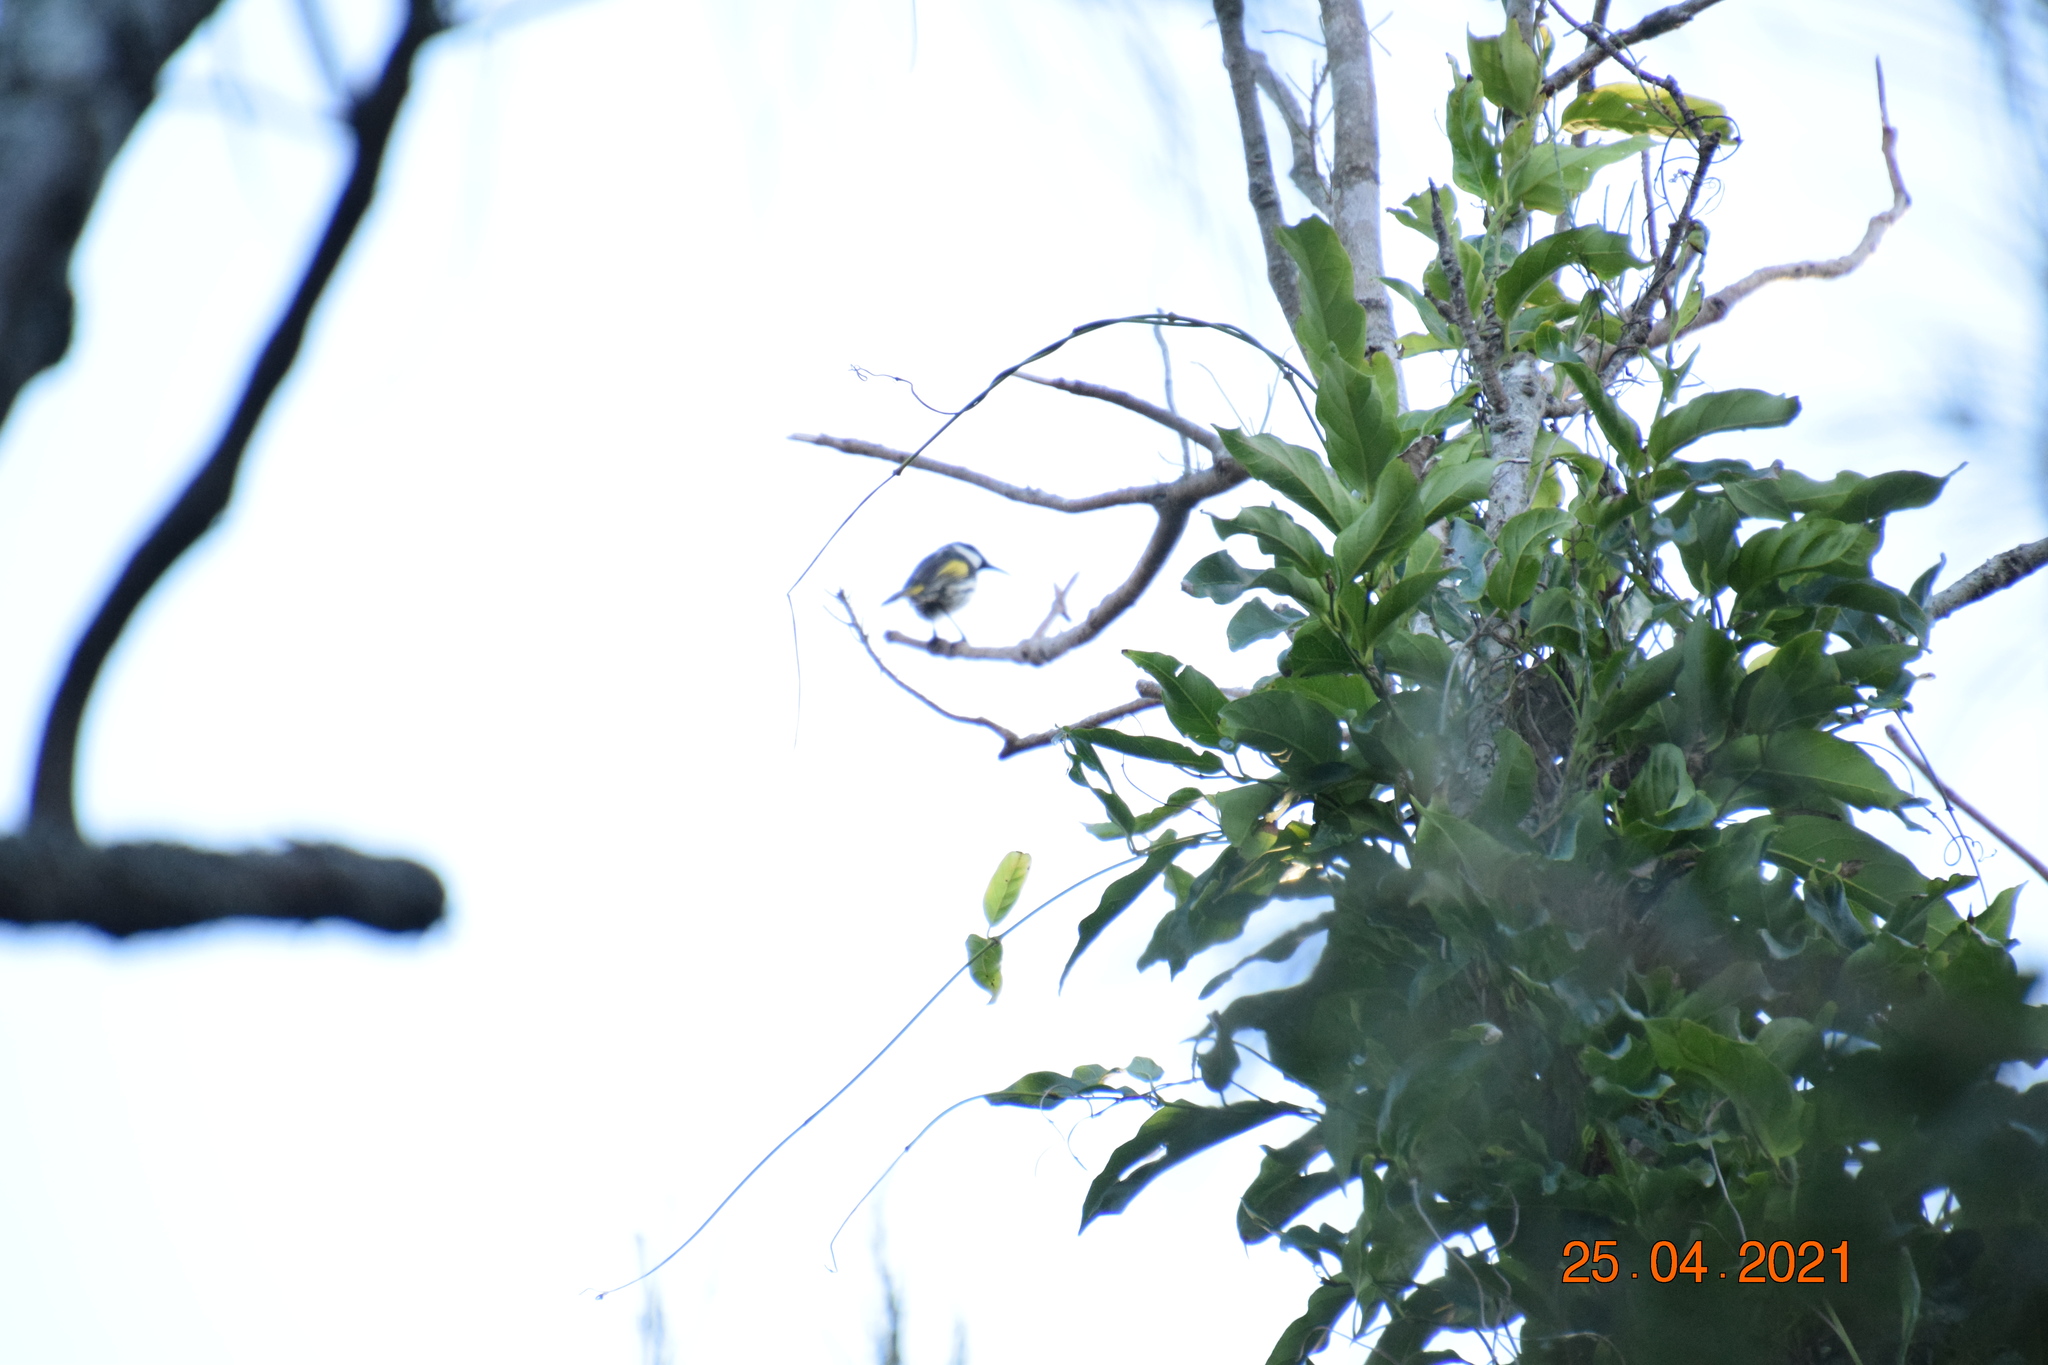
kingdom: Animalia
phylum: Chordata
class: Aves
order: Passeriformes
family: Meliphagidae
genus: Phylidonyris
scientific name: Phylidonyris niger
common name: White-cheeked honeyeater
